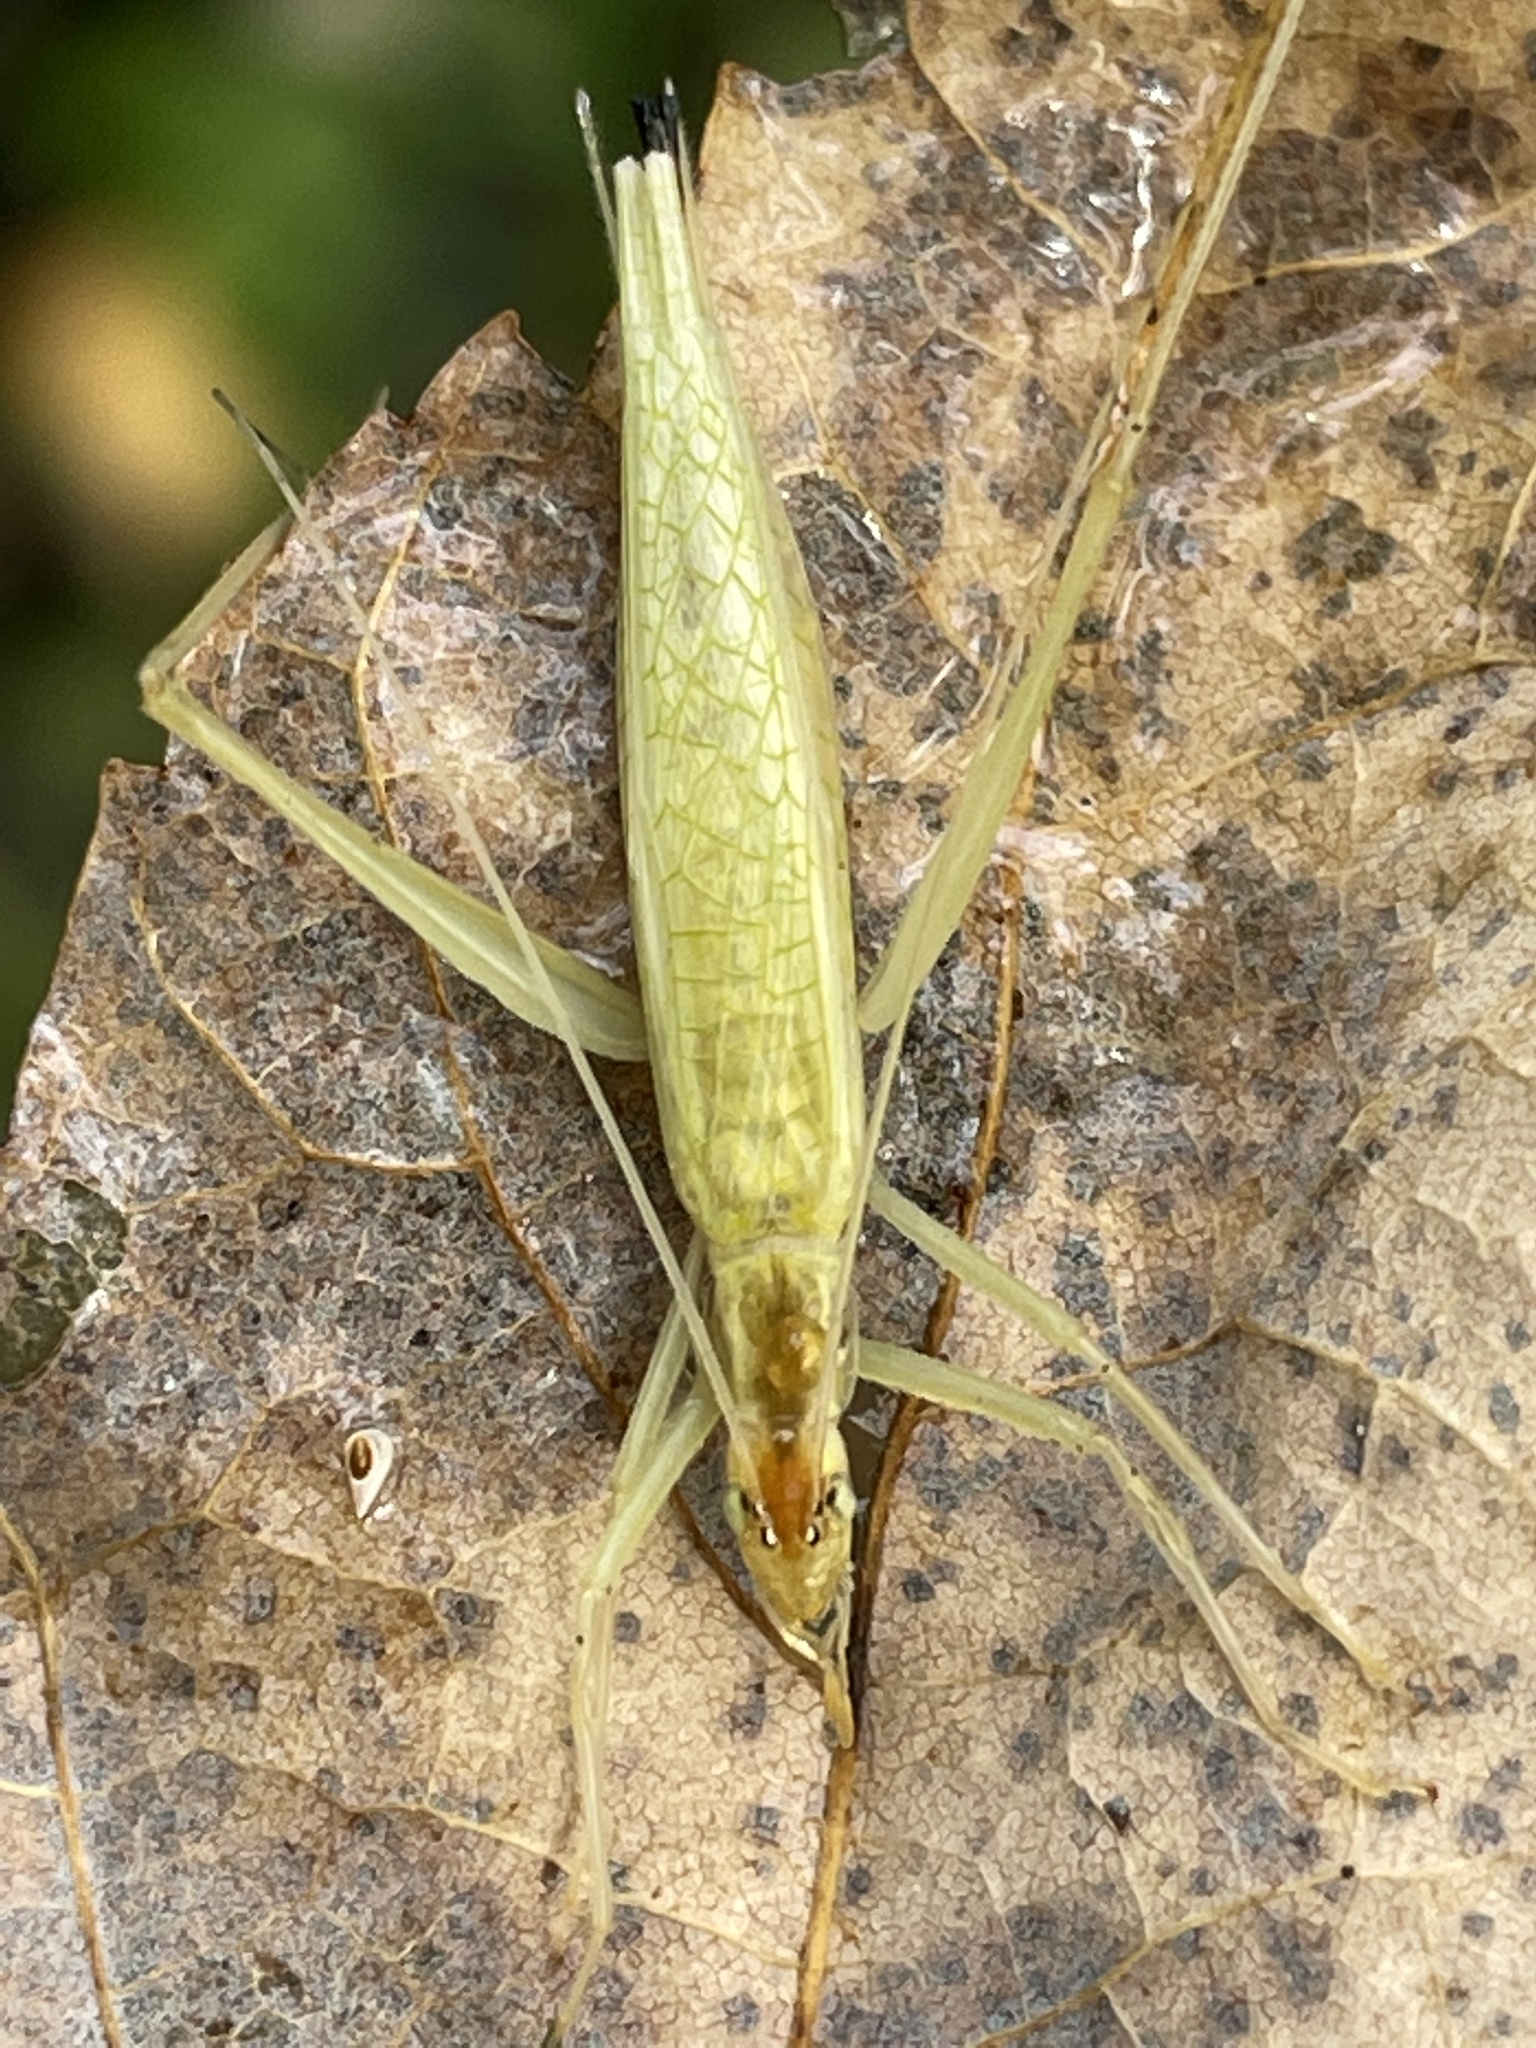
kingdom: Animalia
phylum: Arthropoda
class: Insecta
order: Orthoptera
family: Gryllidae
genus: Oecanthus
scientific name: Oecanthus niveus
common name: Narrow-winged tree cricket
